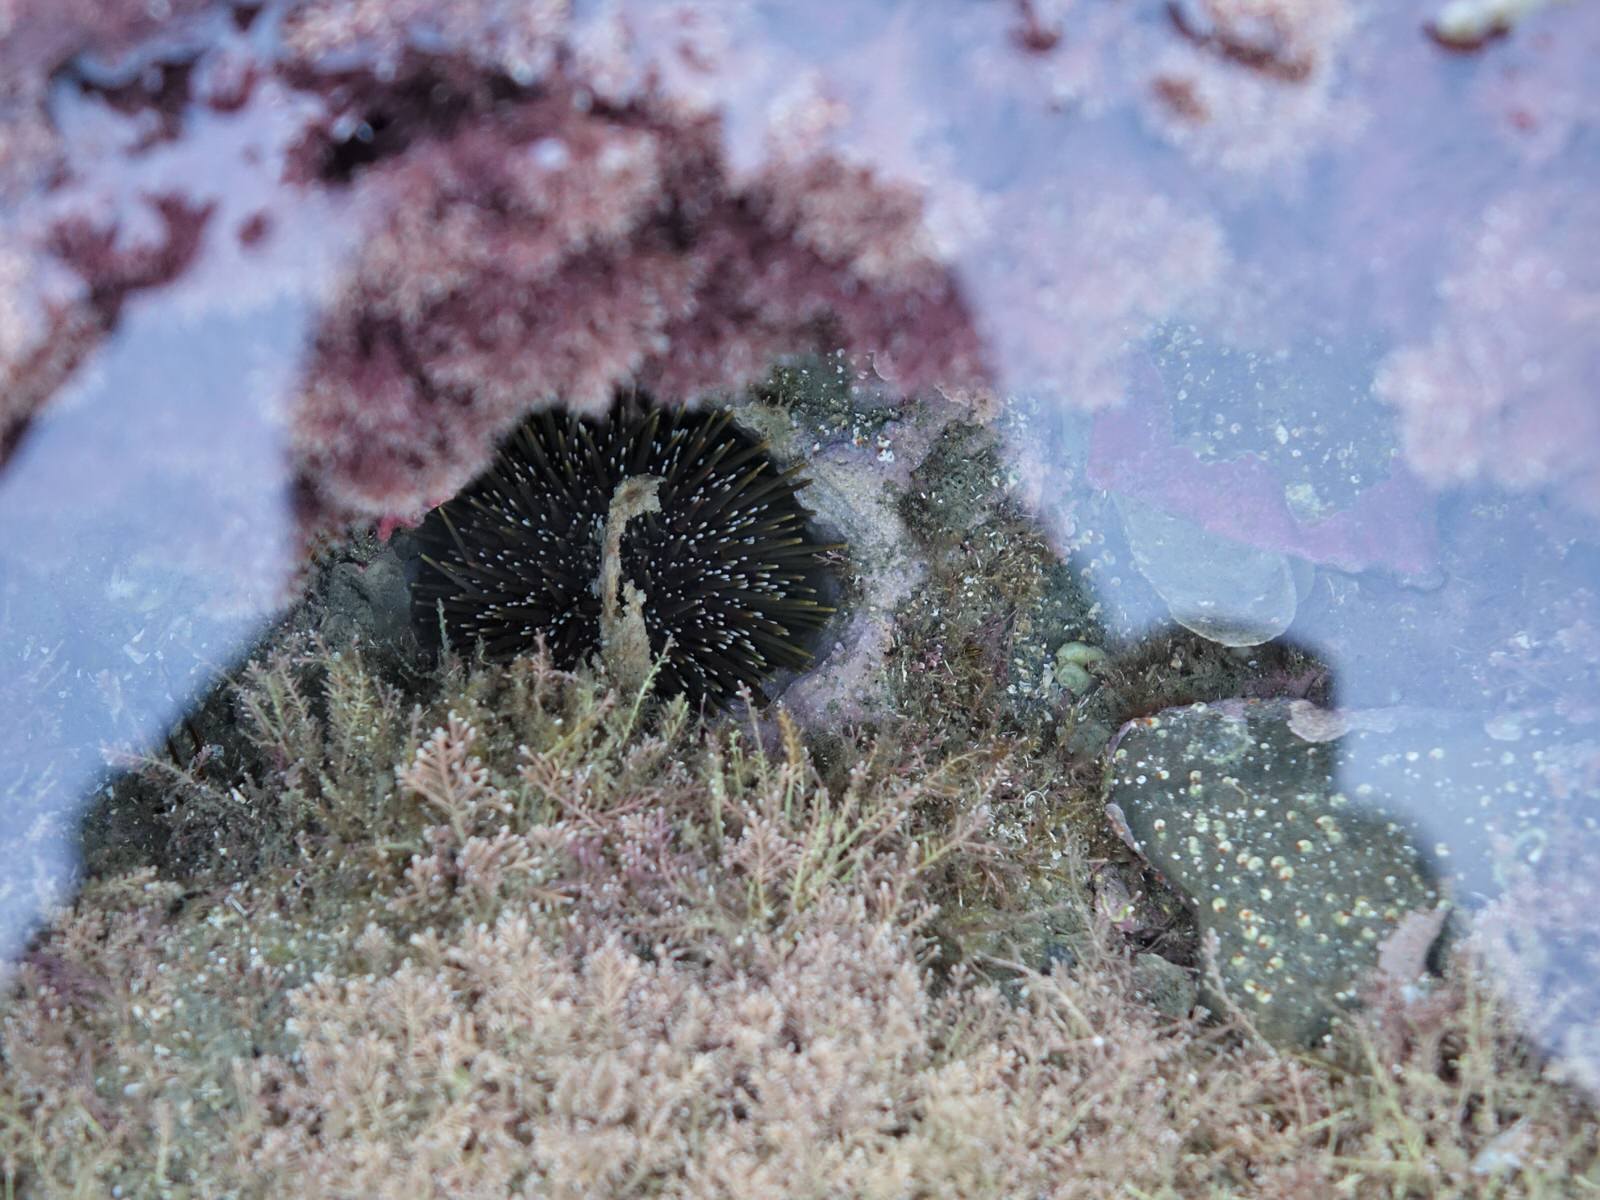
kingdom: Animalia
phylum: Echinodermata
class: Echinoidea
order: Camarodonta
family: Echinometridae
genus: Evechinus
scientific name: Evechinus chloroticus
